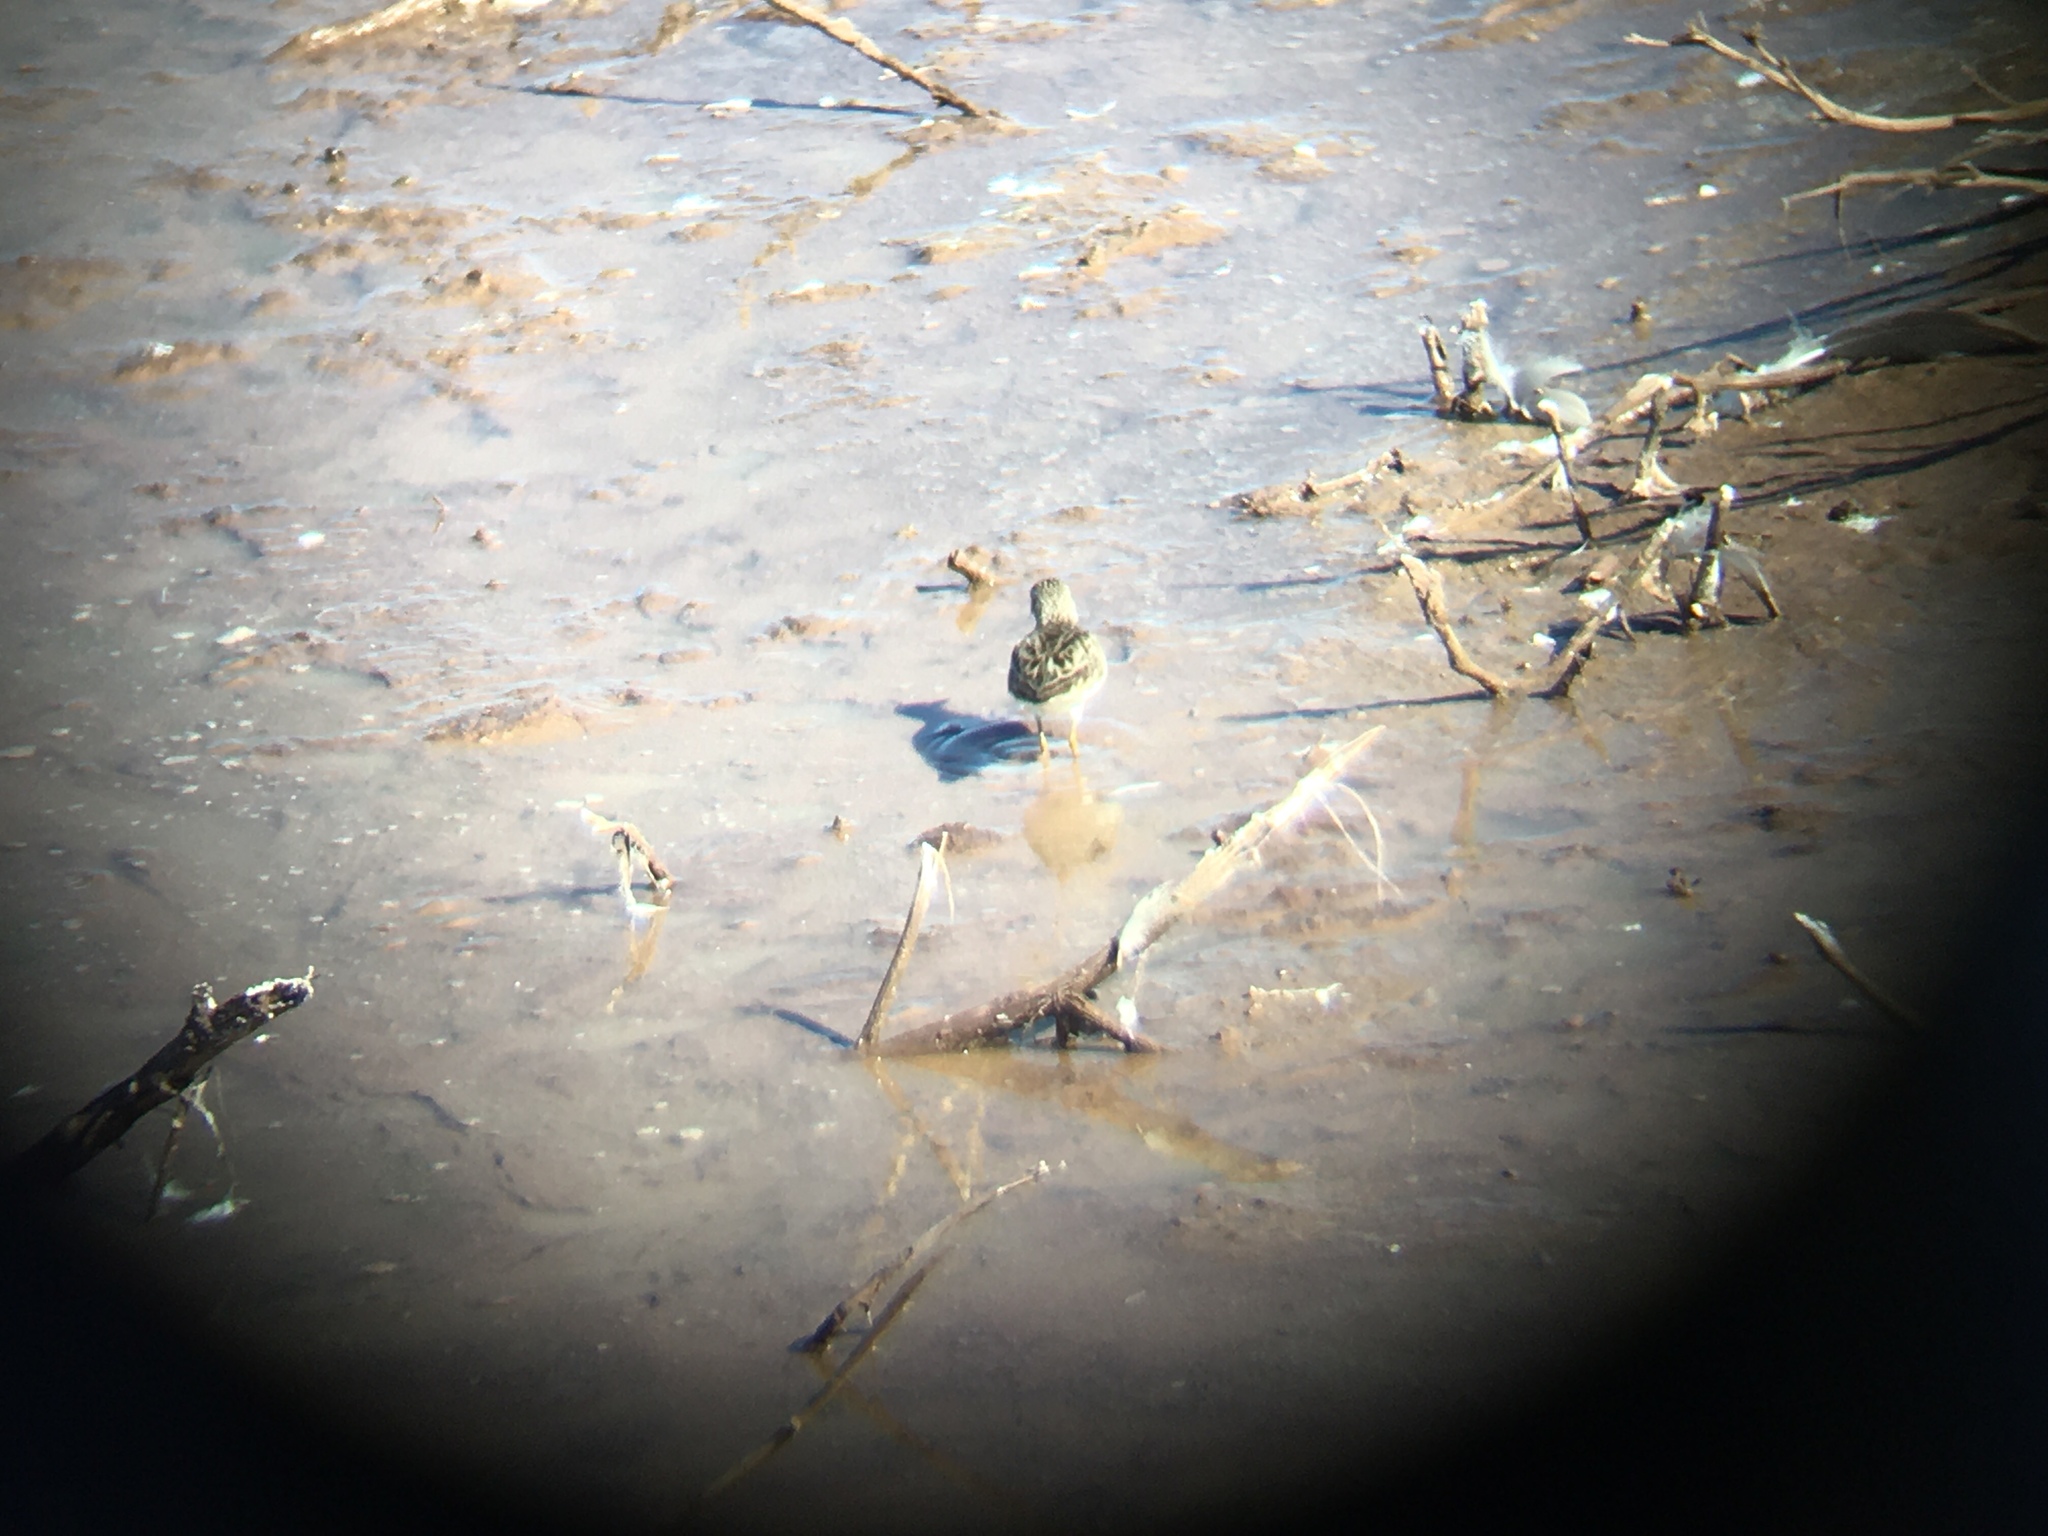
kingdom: Animalia
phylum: Chordata
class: Aves
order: Charadriiformes
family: Scolopacidae
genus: Calidris
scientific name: Calidris minutilla
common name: Least sandpiper
